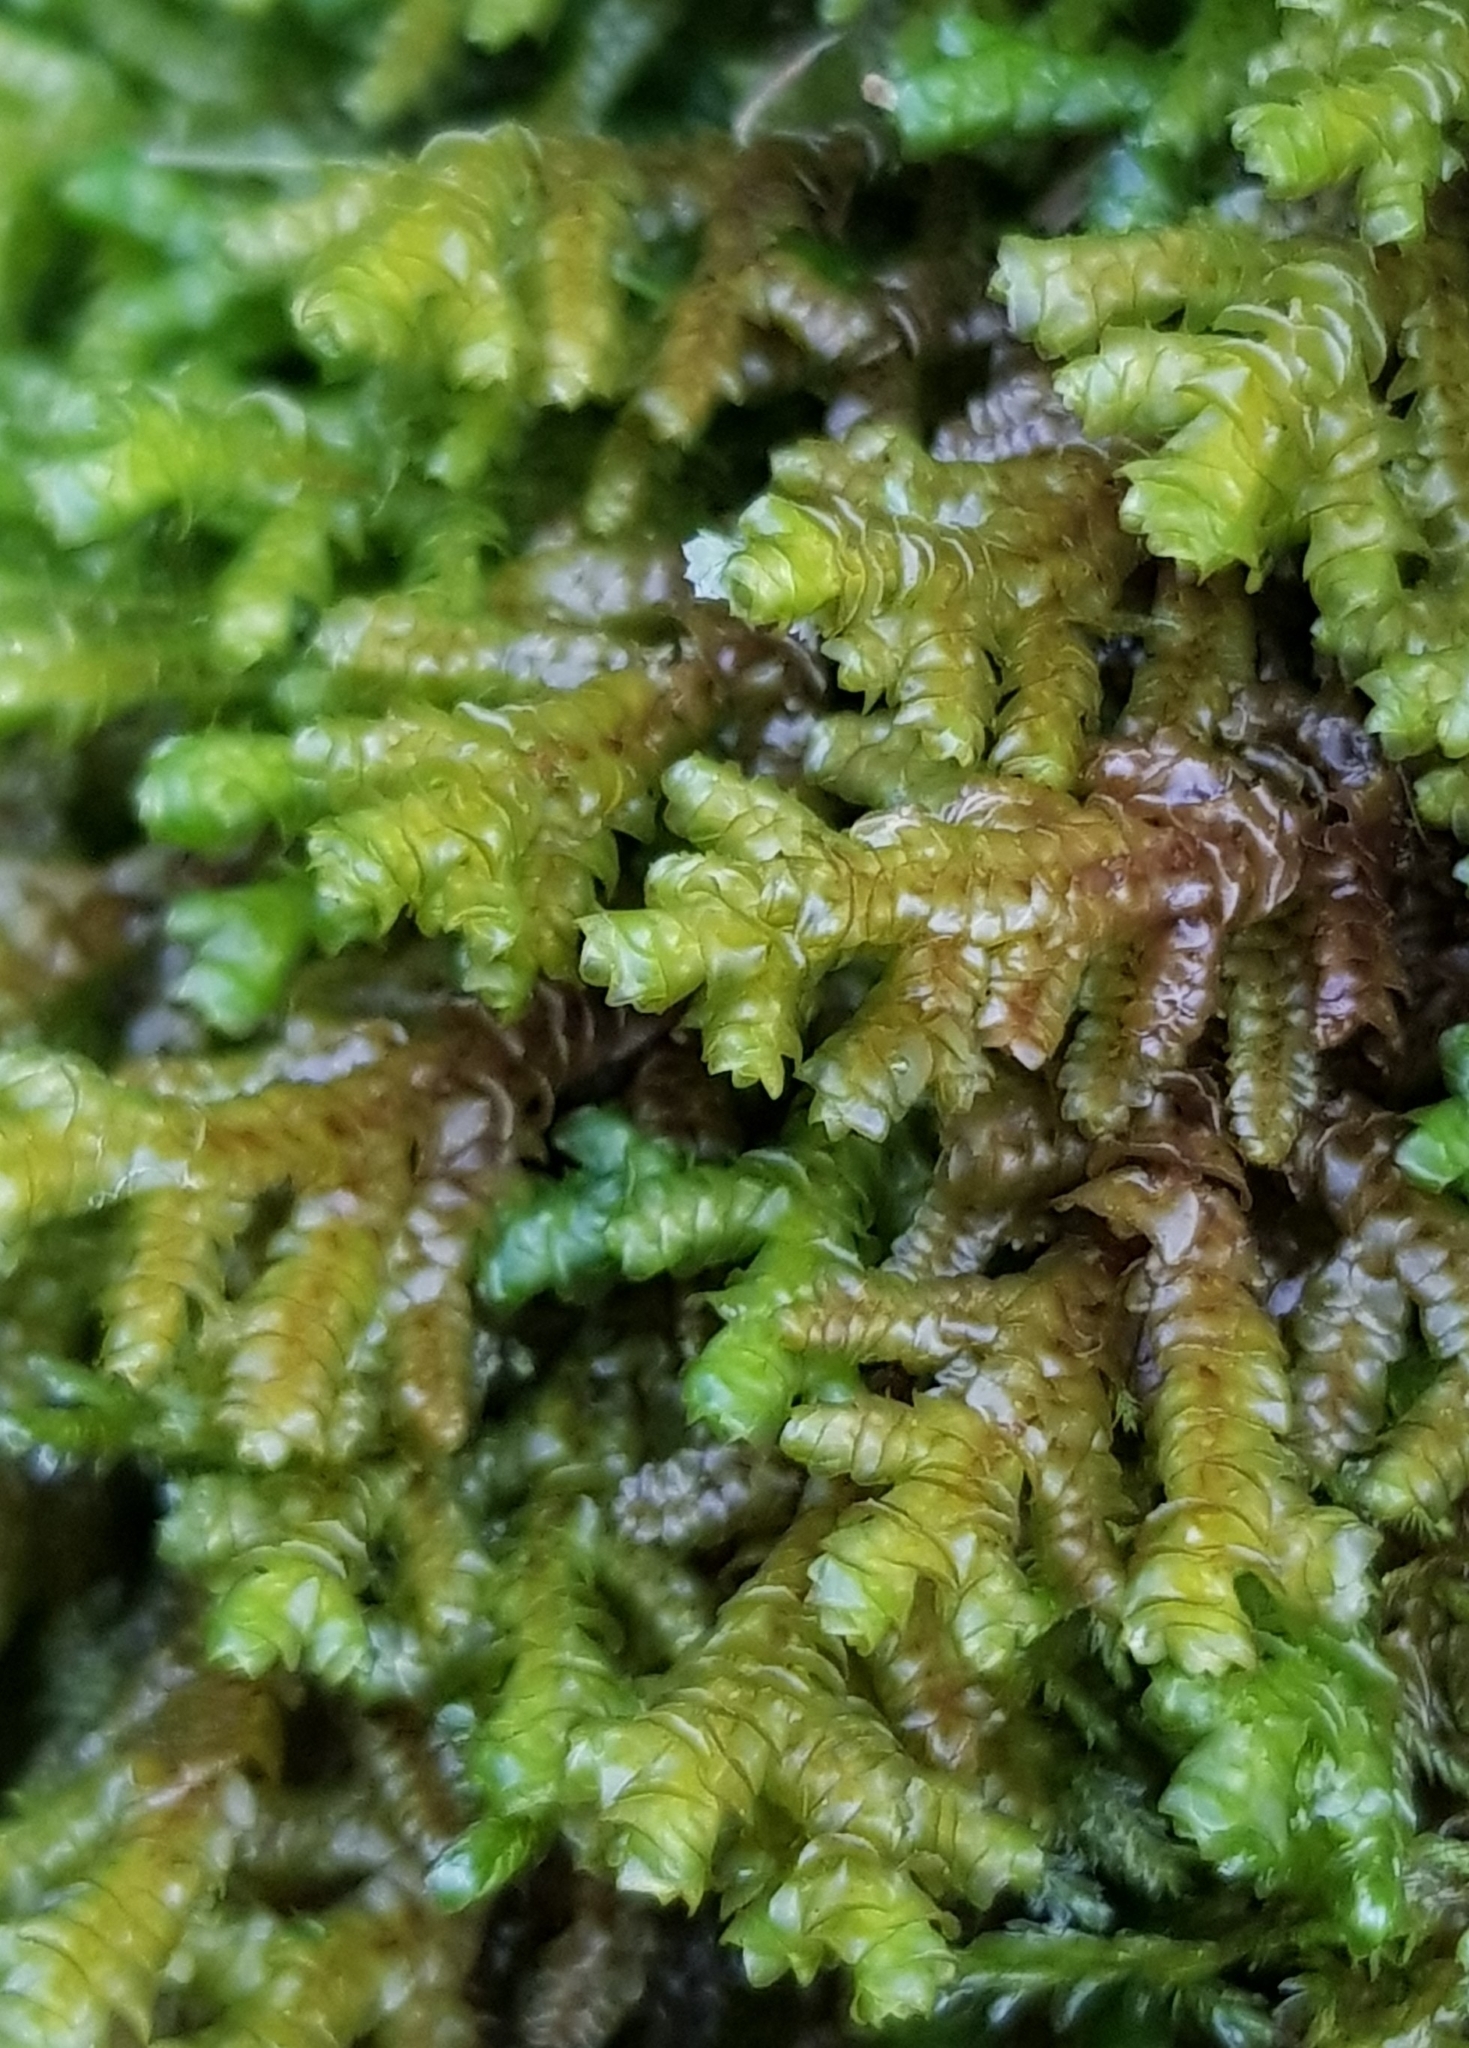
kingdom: Plantae
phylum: Marchantiophyta
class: Jungermanniopsida
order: Porellales
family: Porellaceae
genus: Porella
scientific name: Porella platyphylla
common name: Wall scalewort
